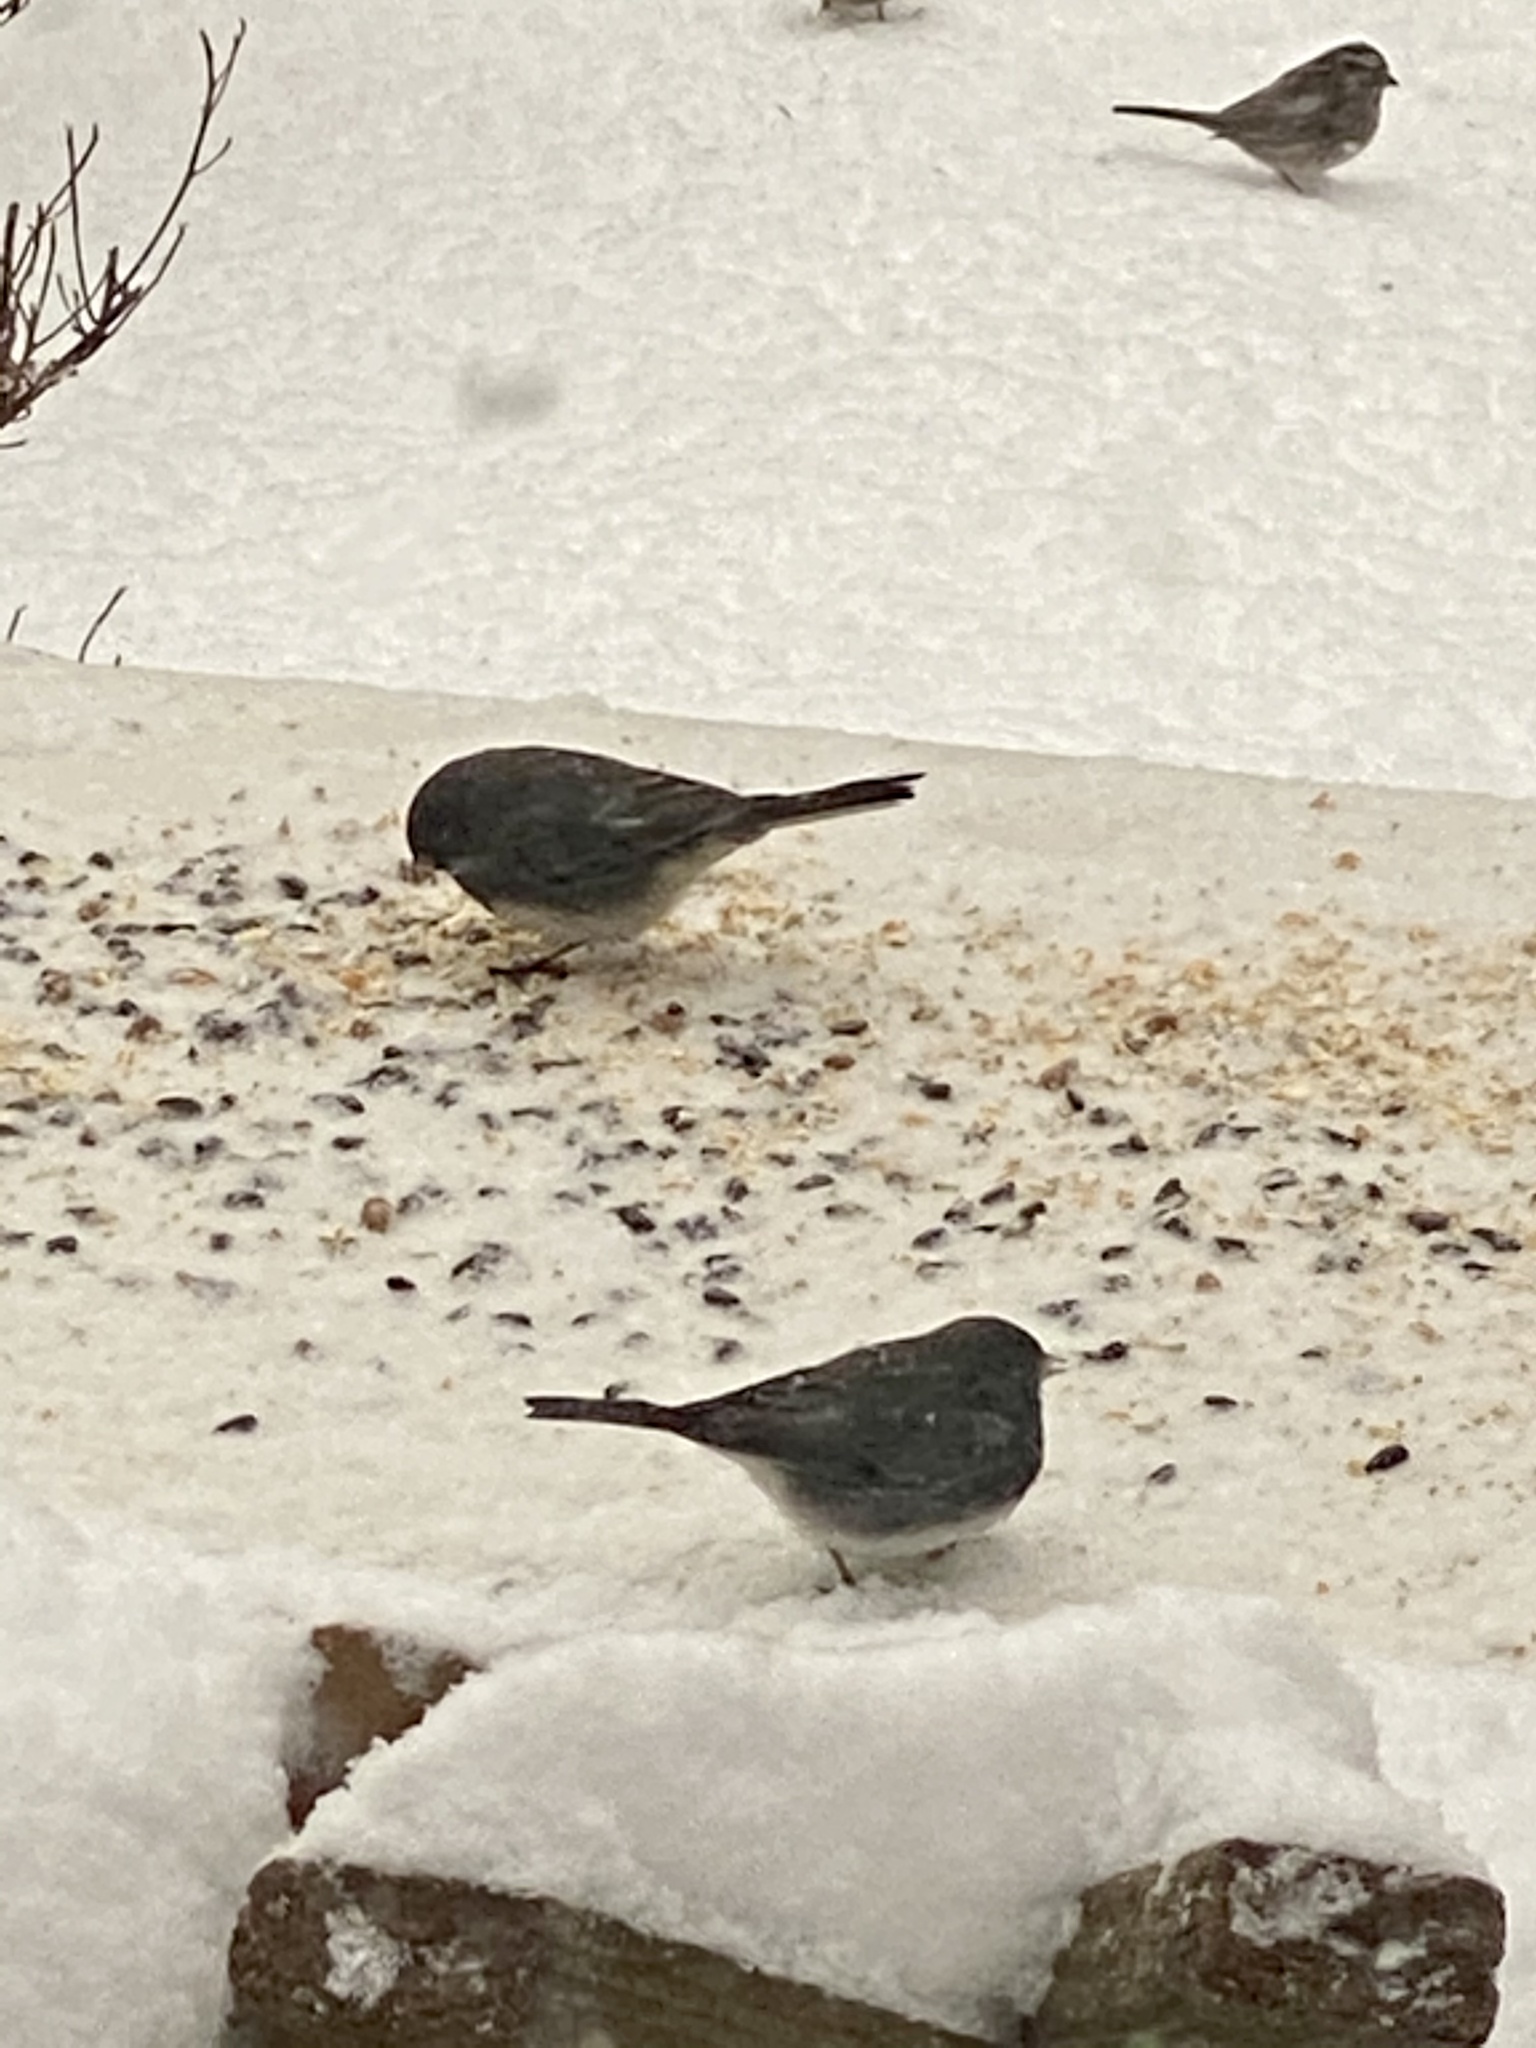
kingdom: Animalia
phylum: Chordata
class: Aves
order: Passeriformes
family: Passerellidae
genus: Junco
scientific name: Junco hyemalis
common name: Dark-eyed junco
